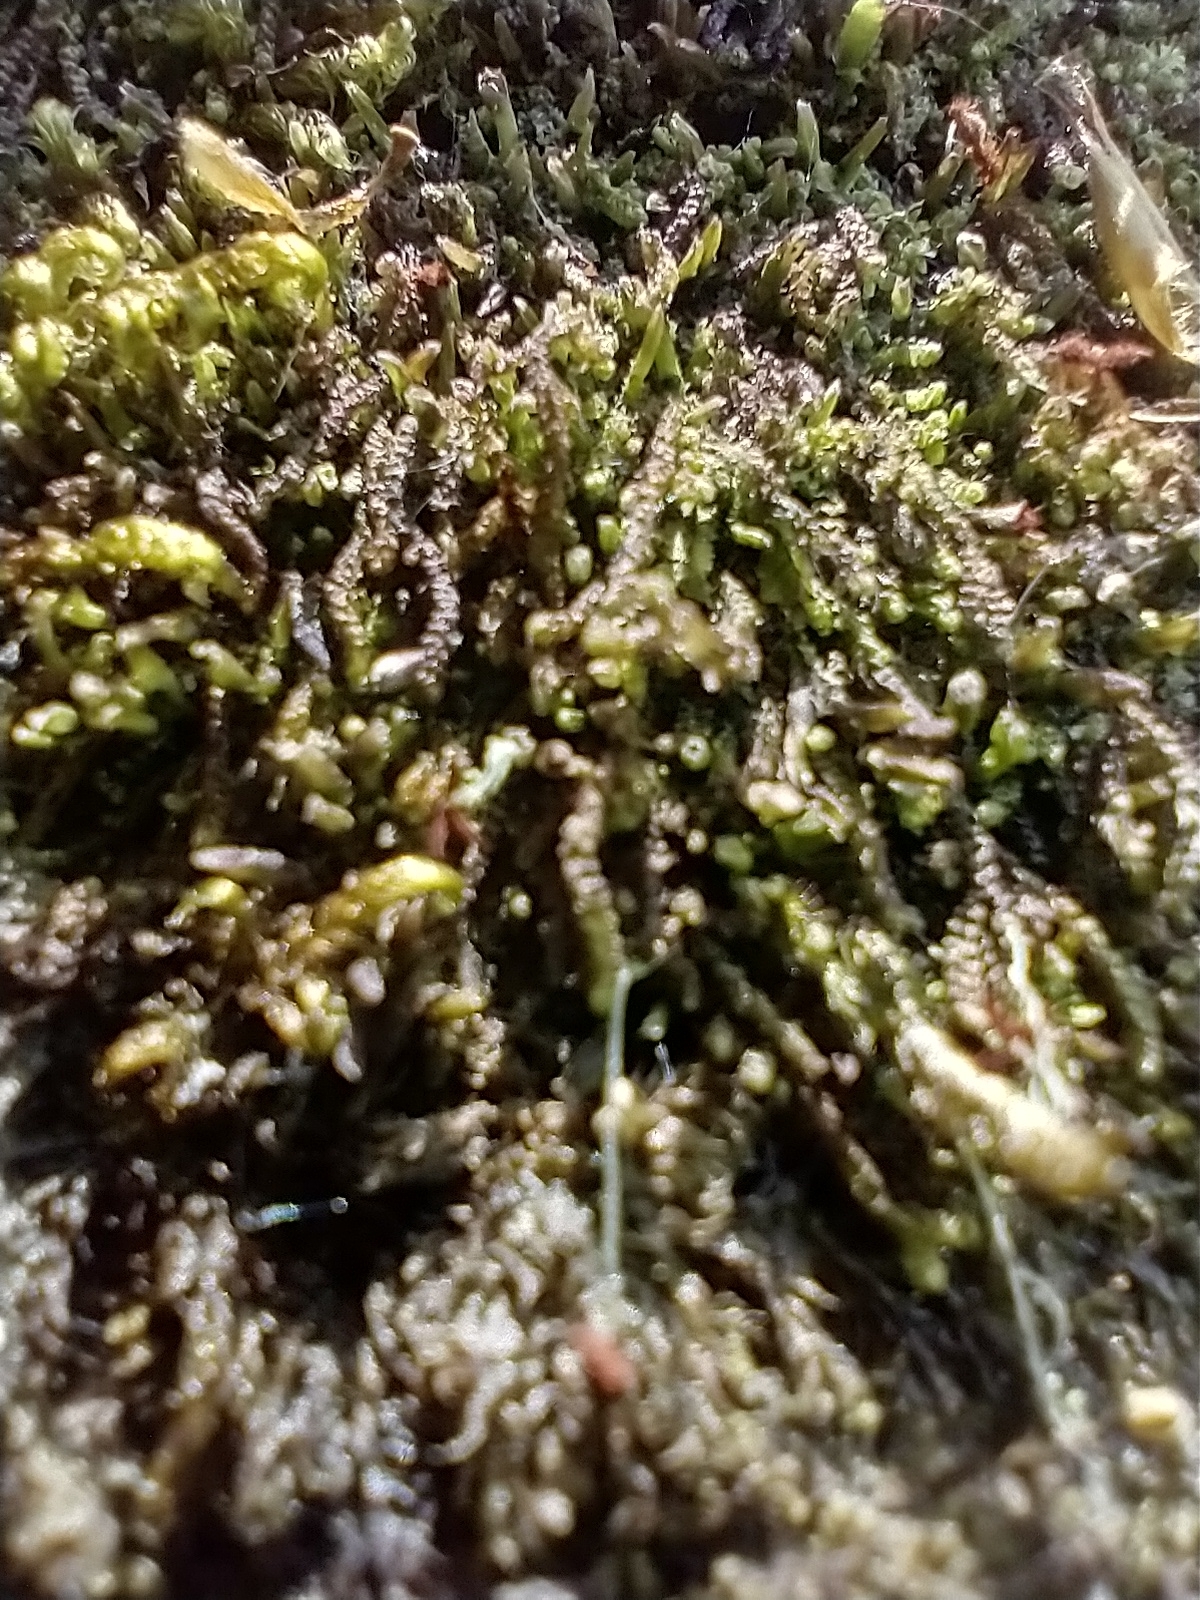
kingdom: Plantae
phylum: Marchantiophyta
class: Jungermanniopsida
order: Jungermanniales
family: Cephaloziaceae
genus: Nowellia
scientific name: Nowellia curvifolia
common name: Wood rustwort
